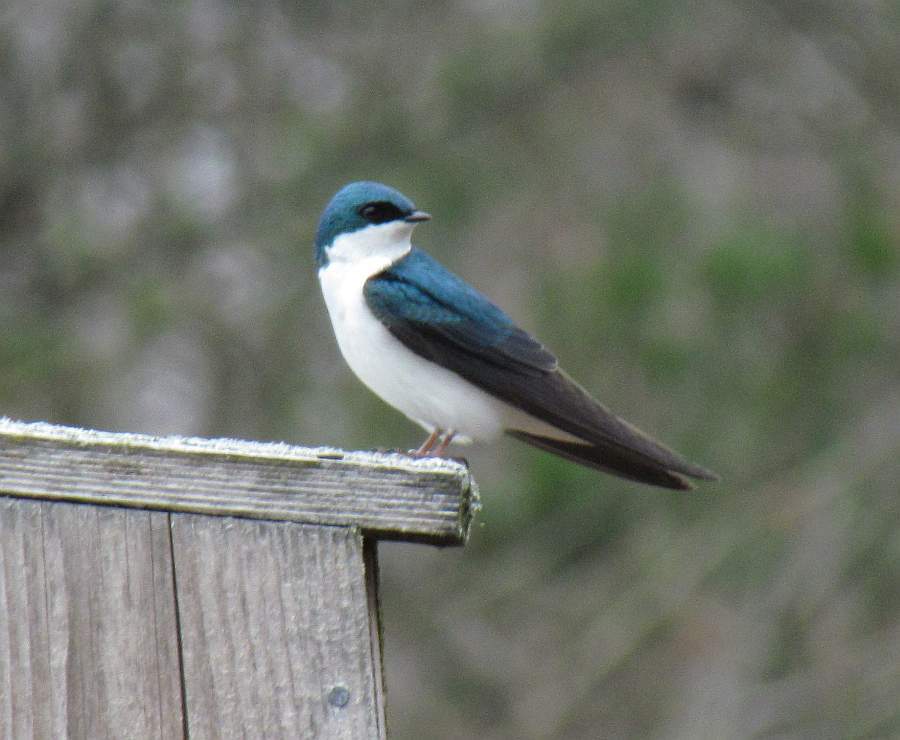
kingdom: Animalia
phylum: Chordata
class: Aves
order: Passeriformes
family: Hirundinidae
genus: Tachycineta
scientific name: Tachycineta bicolor
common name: Tree swallow
